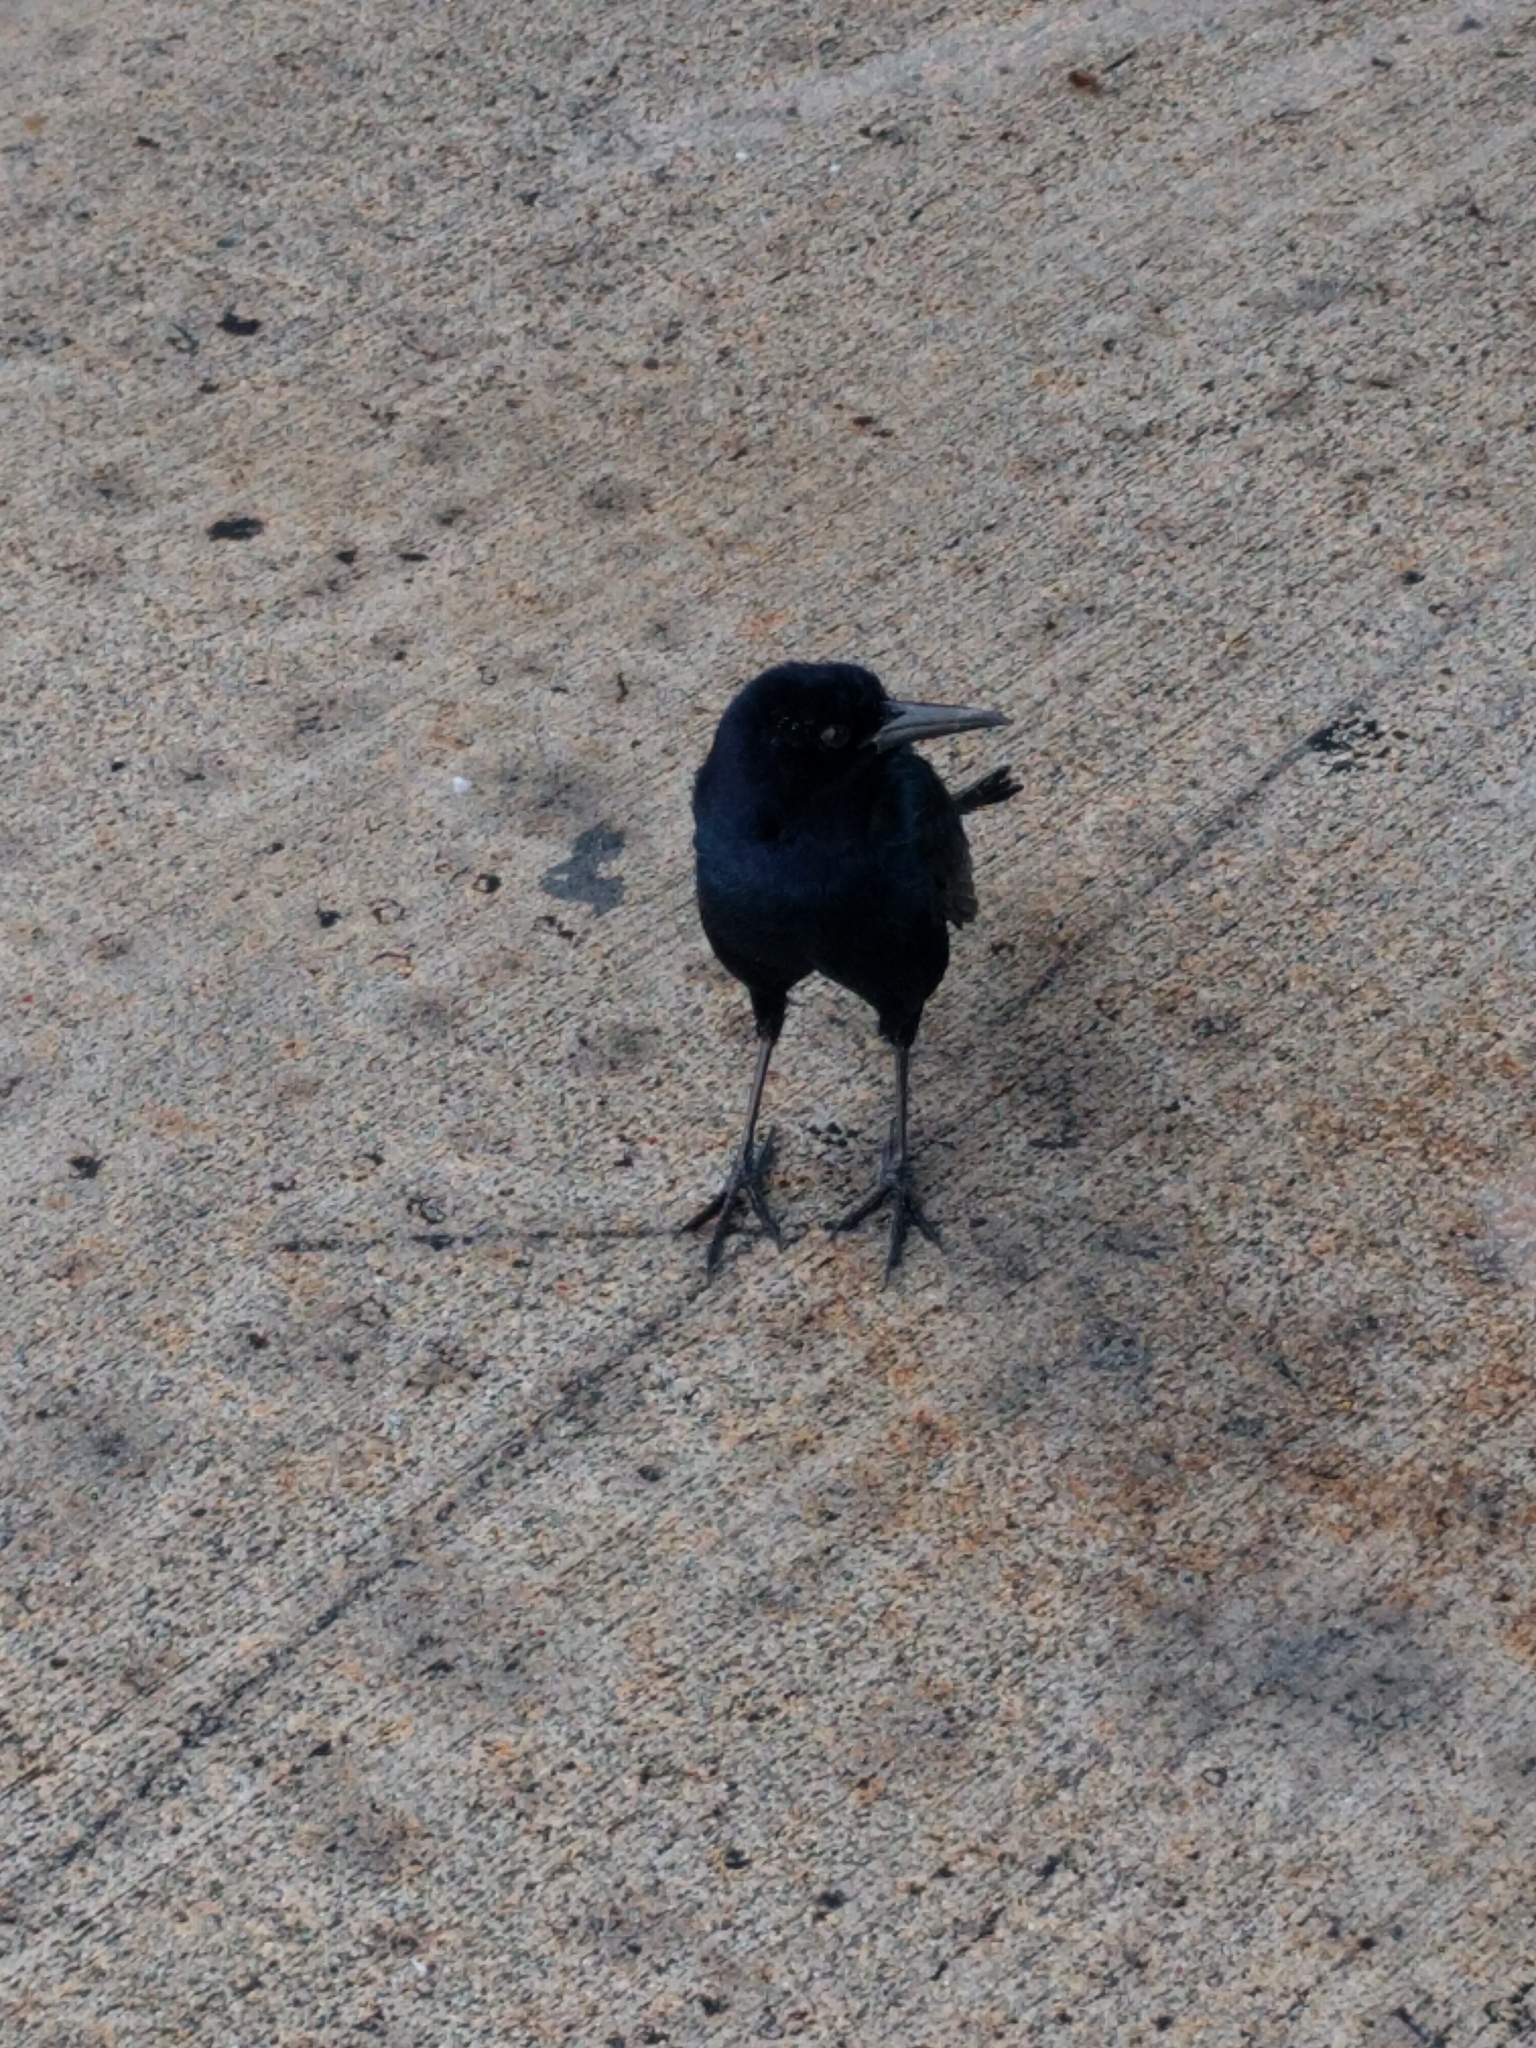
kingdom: Animalia
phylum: Chordata
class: Aves
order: Passeriformes
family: Icteridae
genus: Quiscalus
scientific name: Quiscalus major
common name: Boat-tailed grackle
